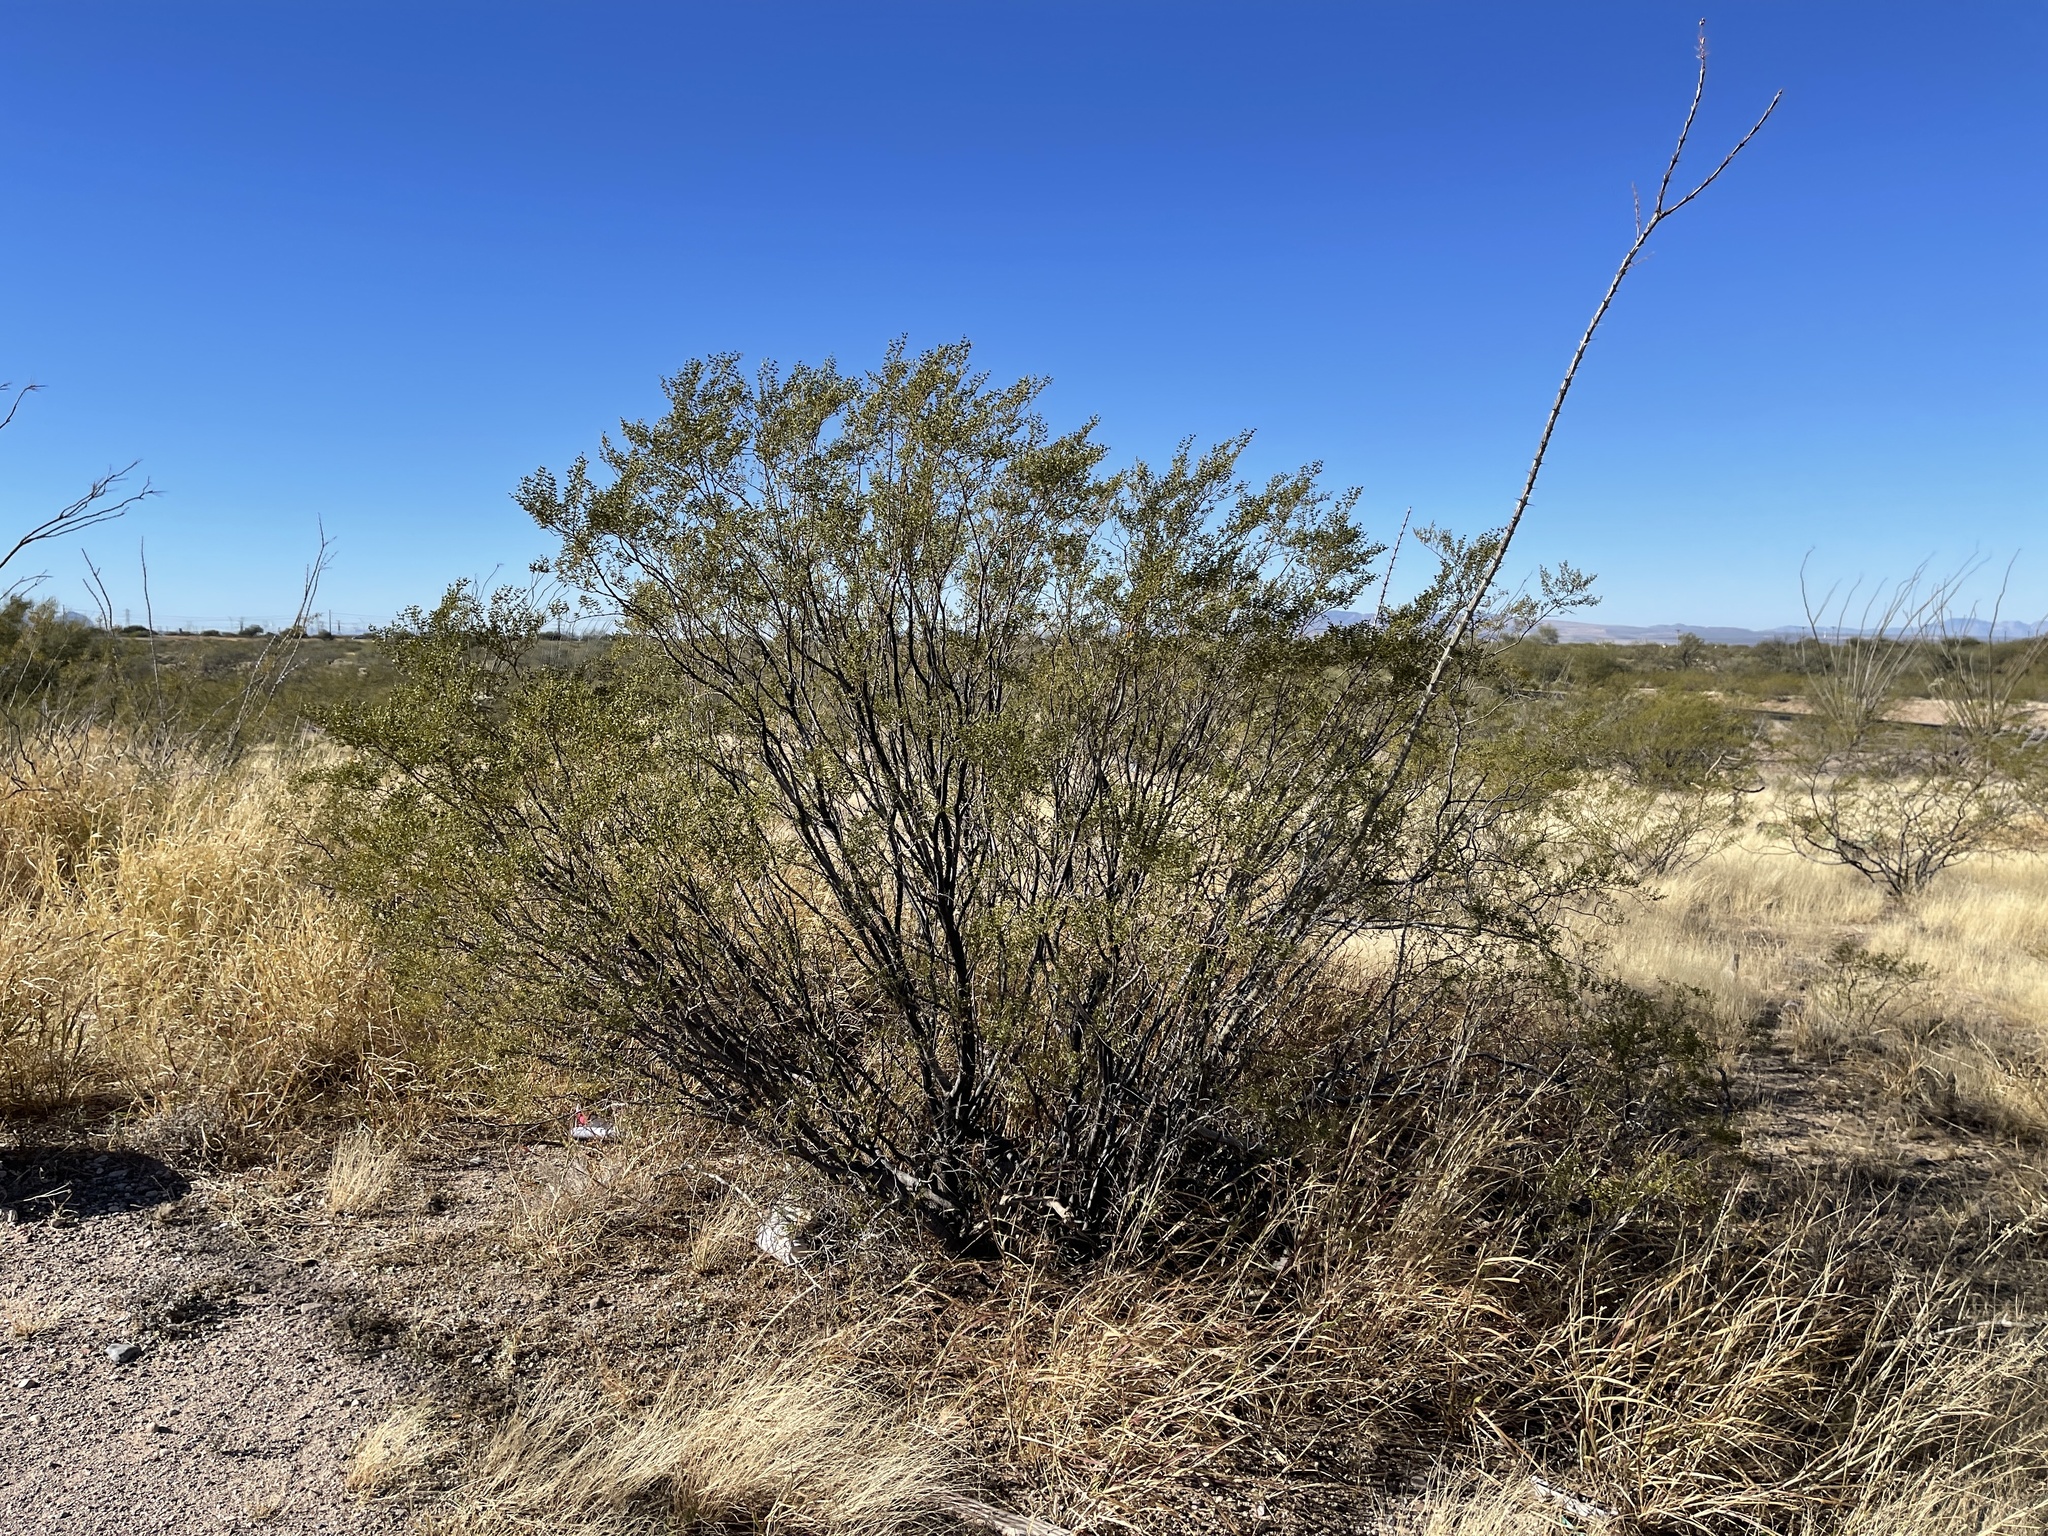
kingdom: Plantae
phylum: Tracheophyta
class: Magnoliopsida
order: Zygophyllales
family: Zygophyllaceae
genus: Larrea
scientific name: Larrea tridentata
